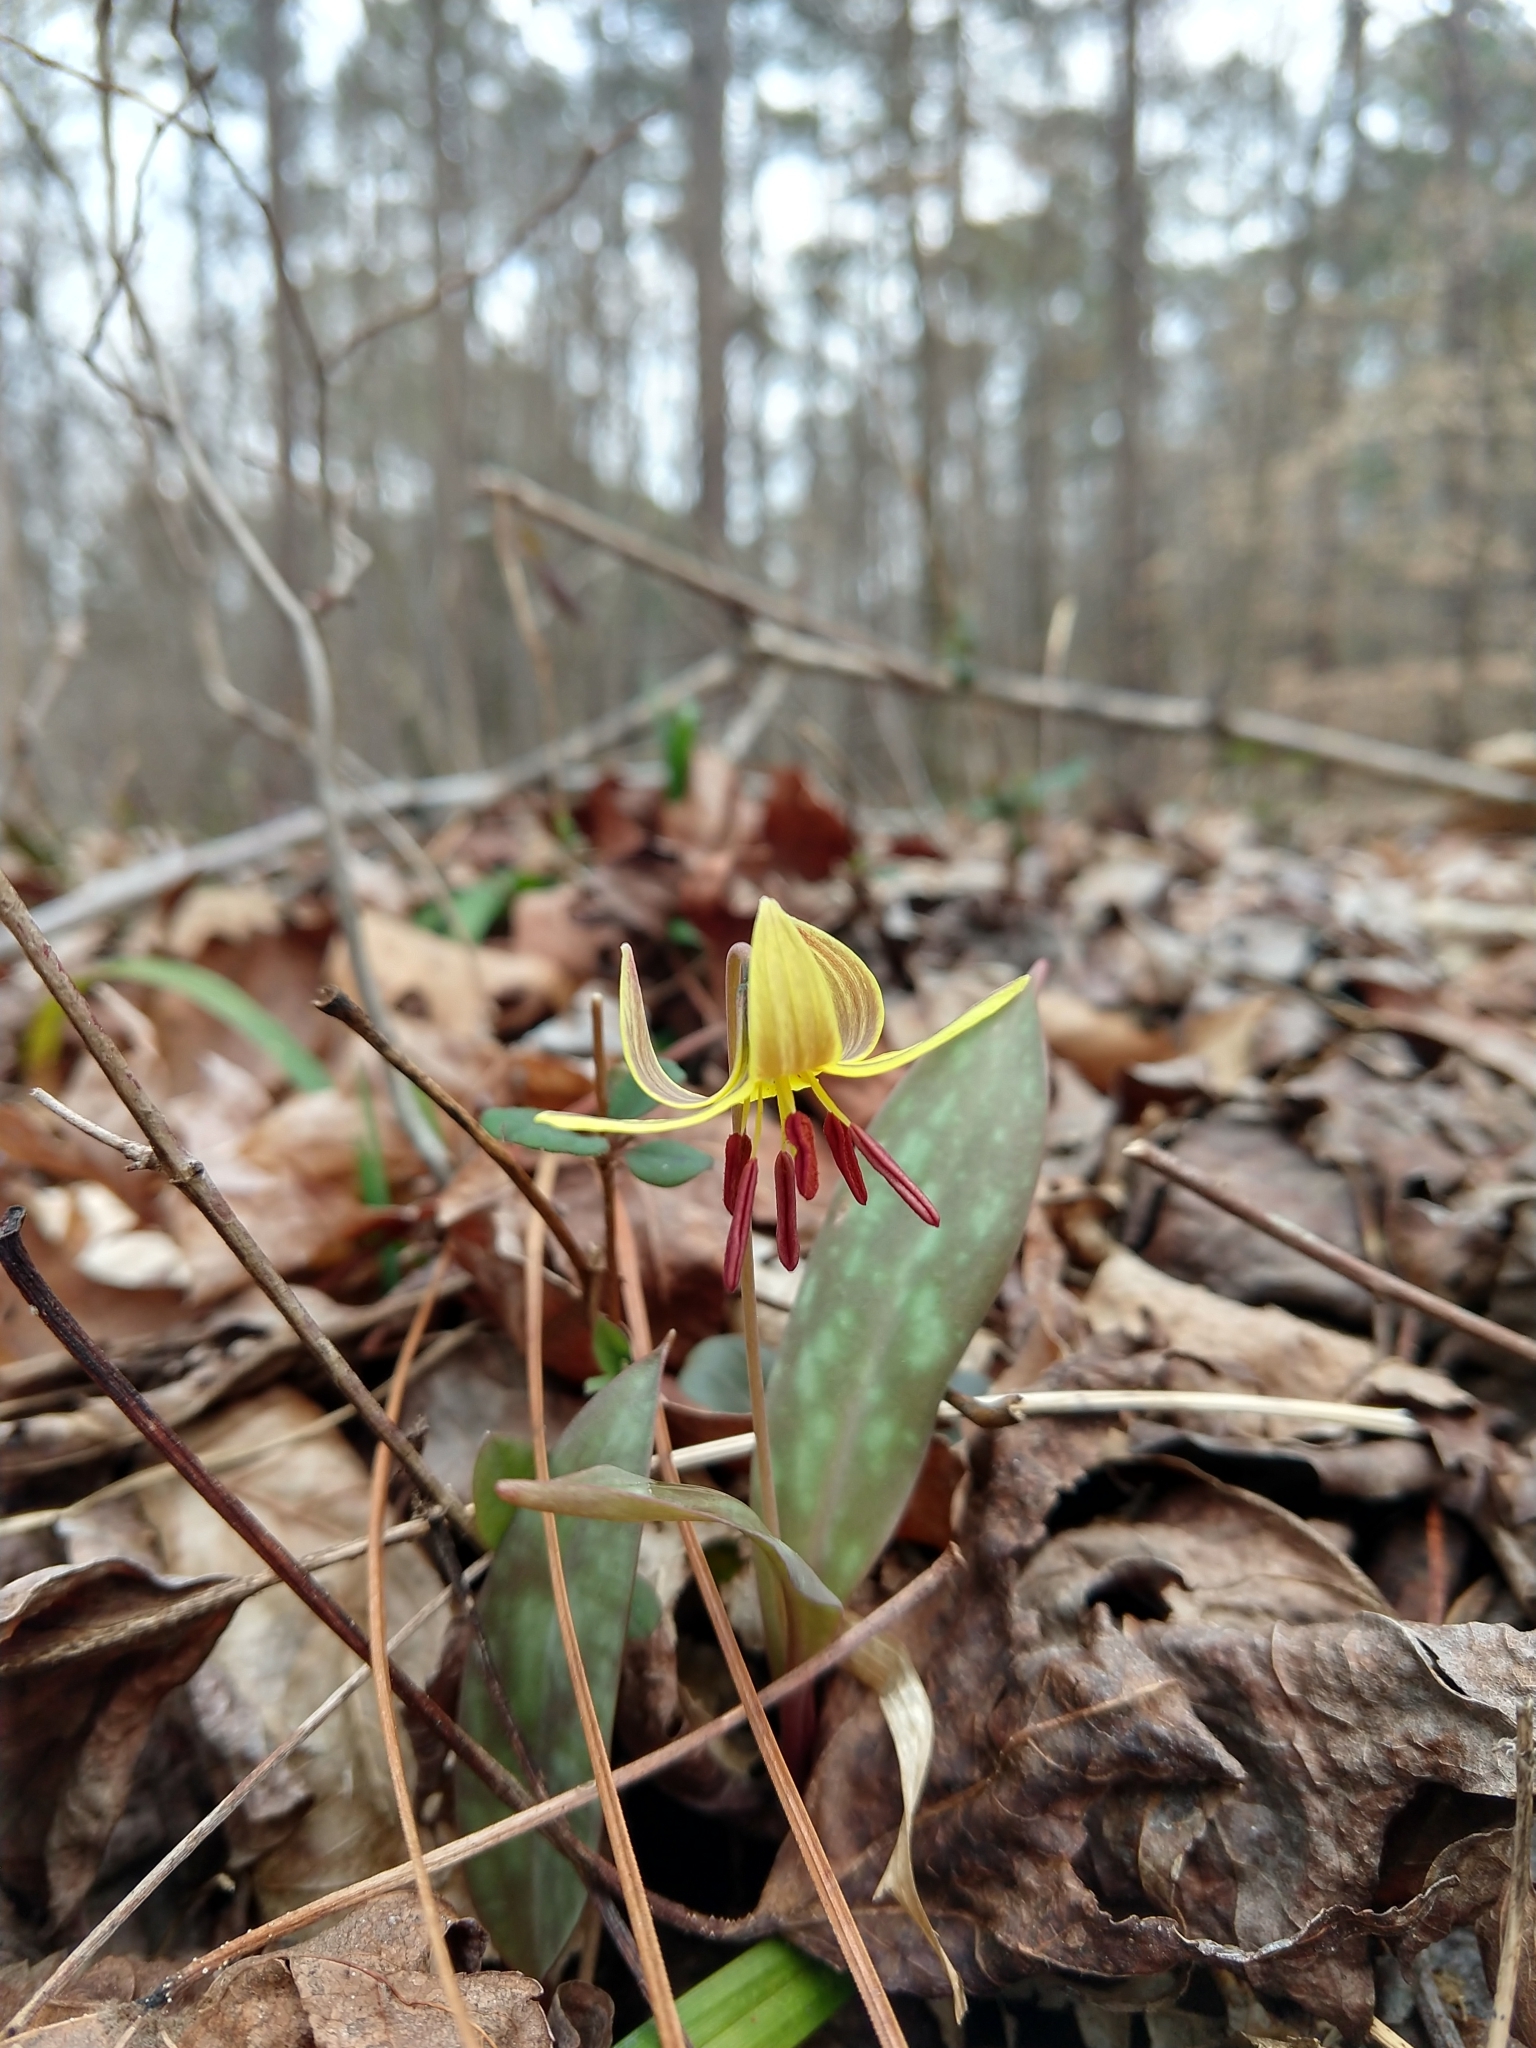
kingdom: Plantae
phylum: Tracheophyta
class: Liliopsida
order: Liliales
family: Liliaceae
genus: Erythronium
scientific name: Erythronium umbilicatum
